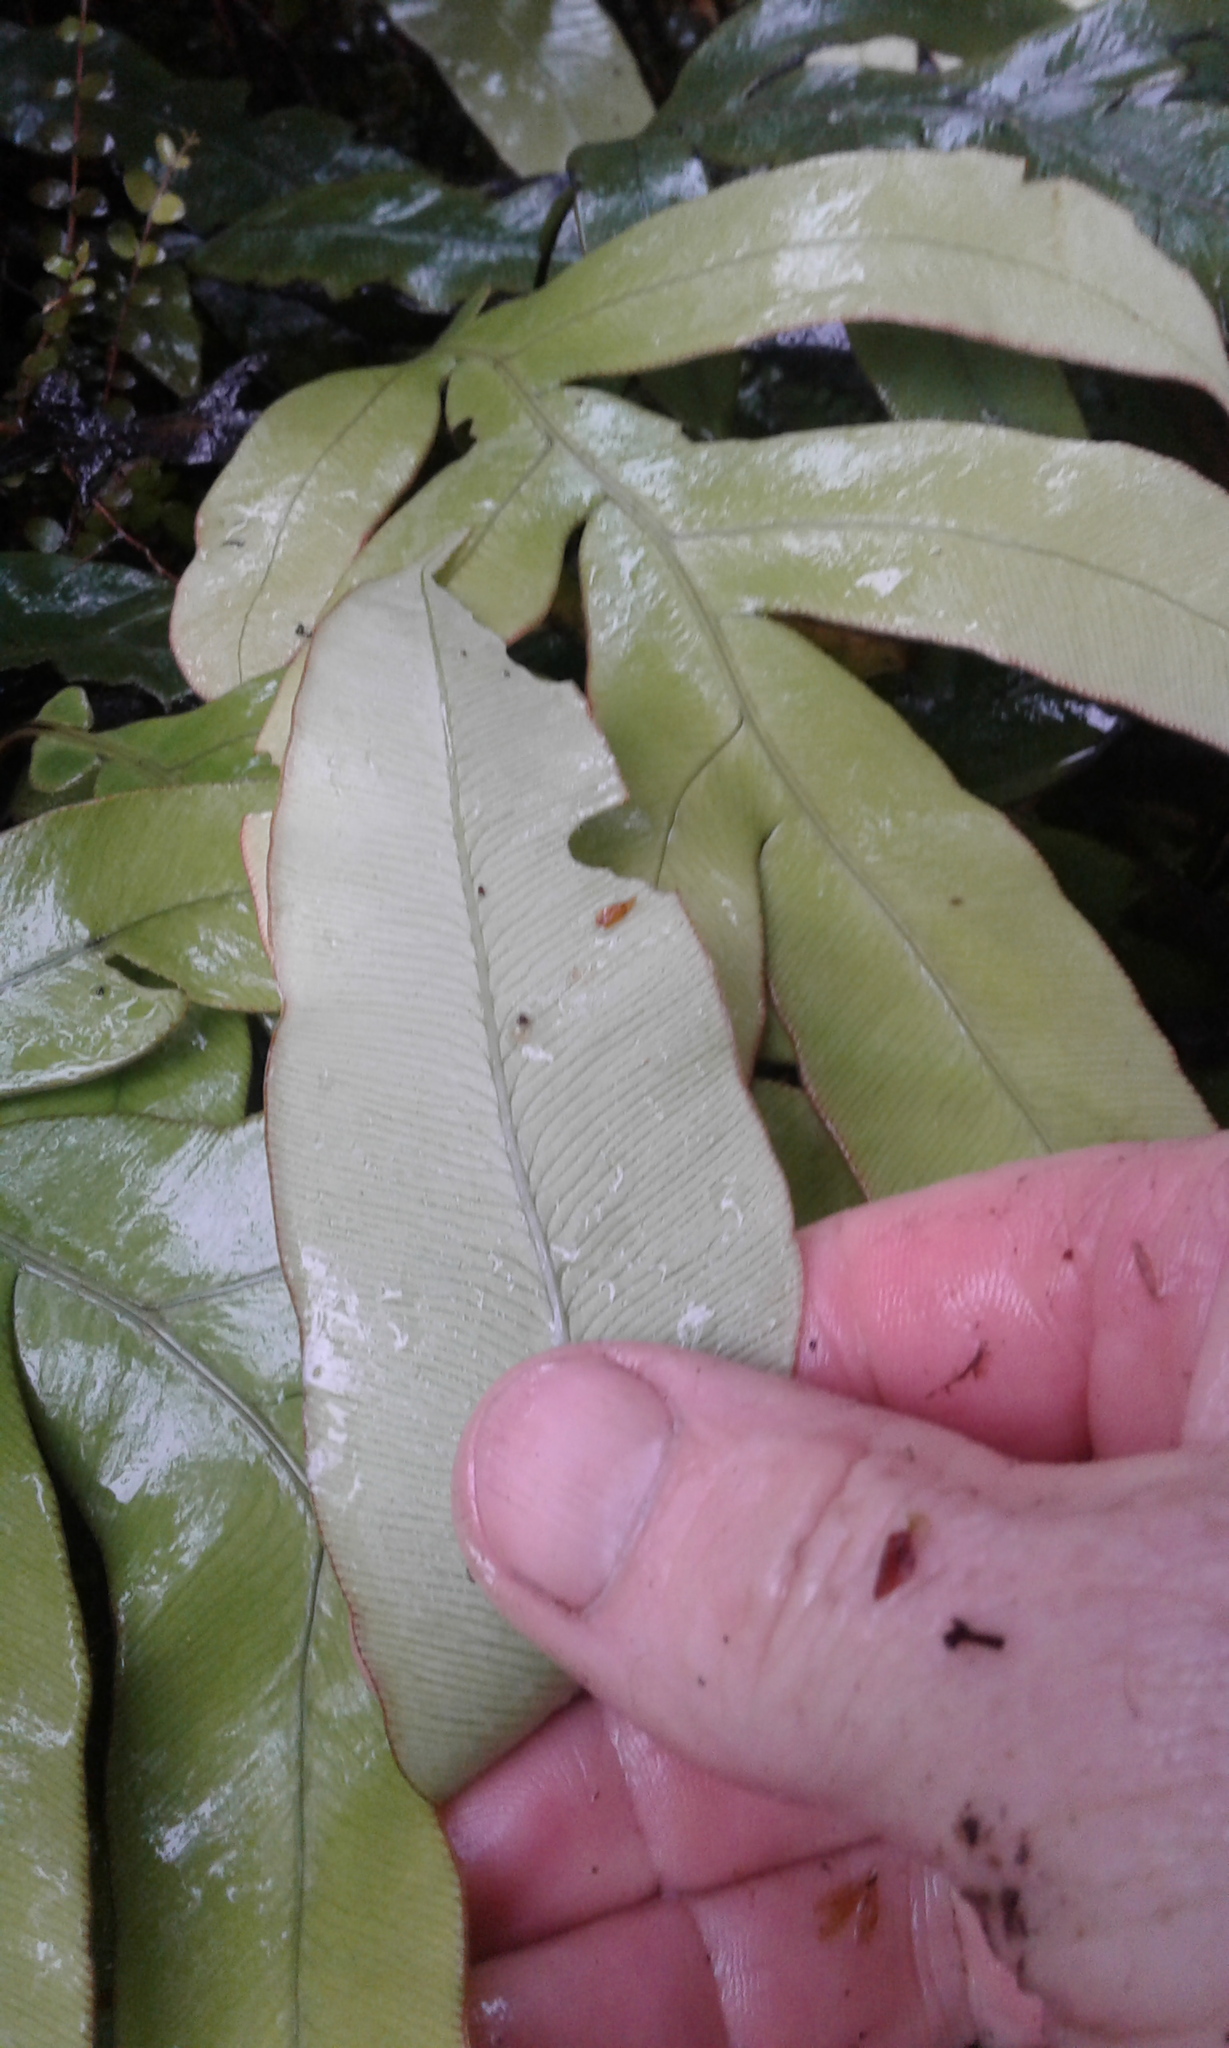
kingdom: Plantae
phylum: Tracheophyta
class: Polypodiopsida
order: Polypodiales
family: Blechnaceae
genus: Austroblechnum
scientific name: Austroblechnum colensoi
